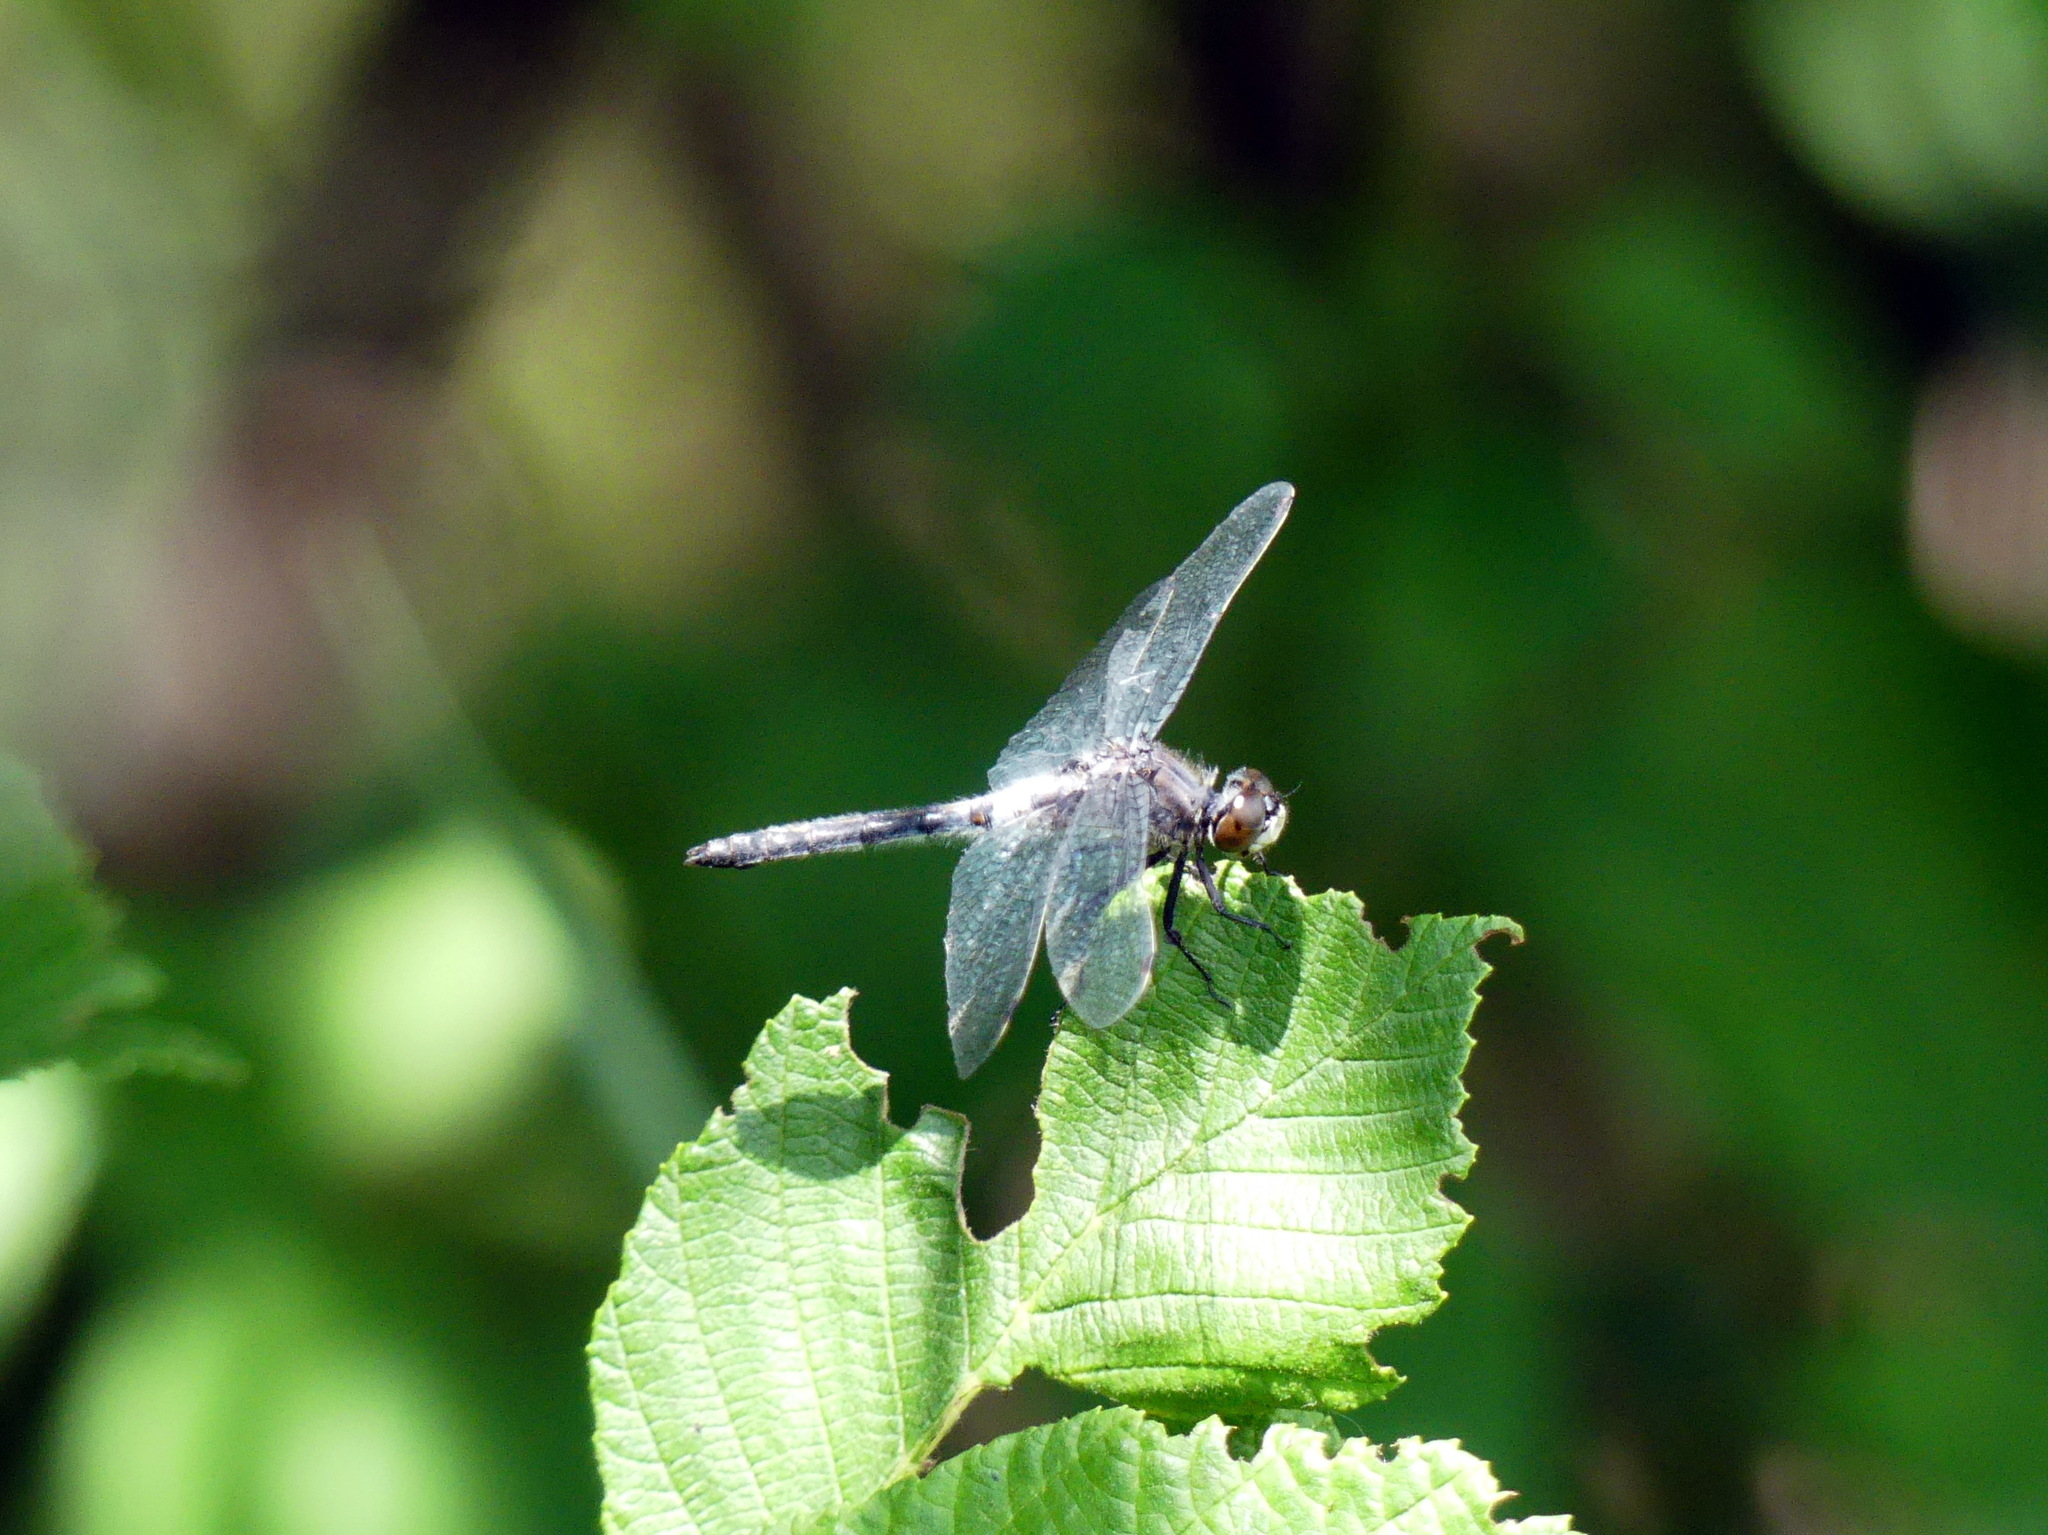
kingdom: Animalia
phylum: Arthropoda
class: Insecta
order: Odonata
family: Libellulidae
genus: Leucorrhinia
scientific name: Leucorrhinia frigida
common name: Frosted whiteface
